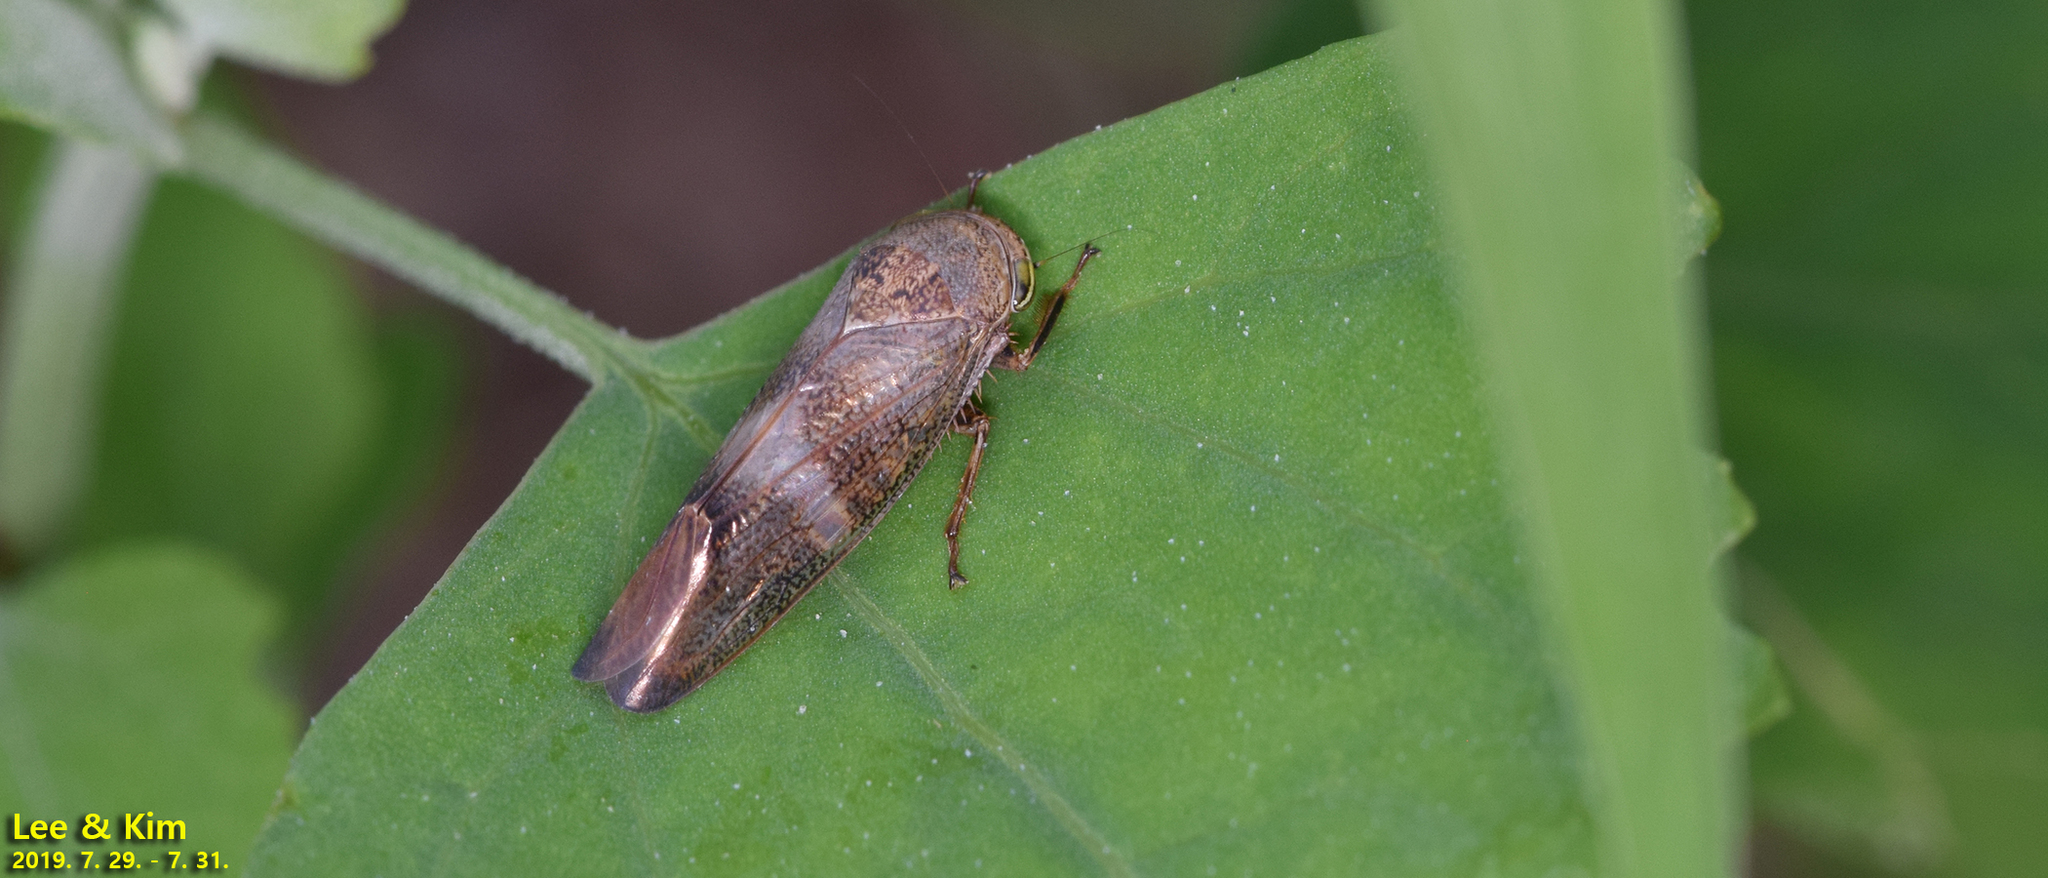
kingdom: Animalia
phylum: Arthropoda
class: Insecta
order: Hemiptera
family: Cicadellidae
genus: Drabescus
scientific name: Drabescus
